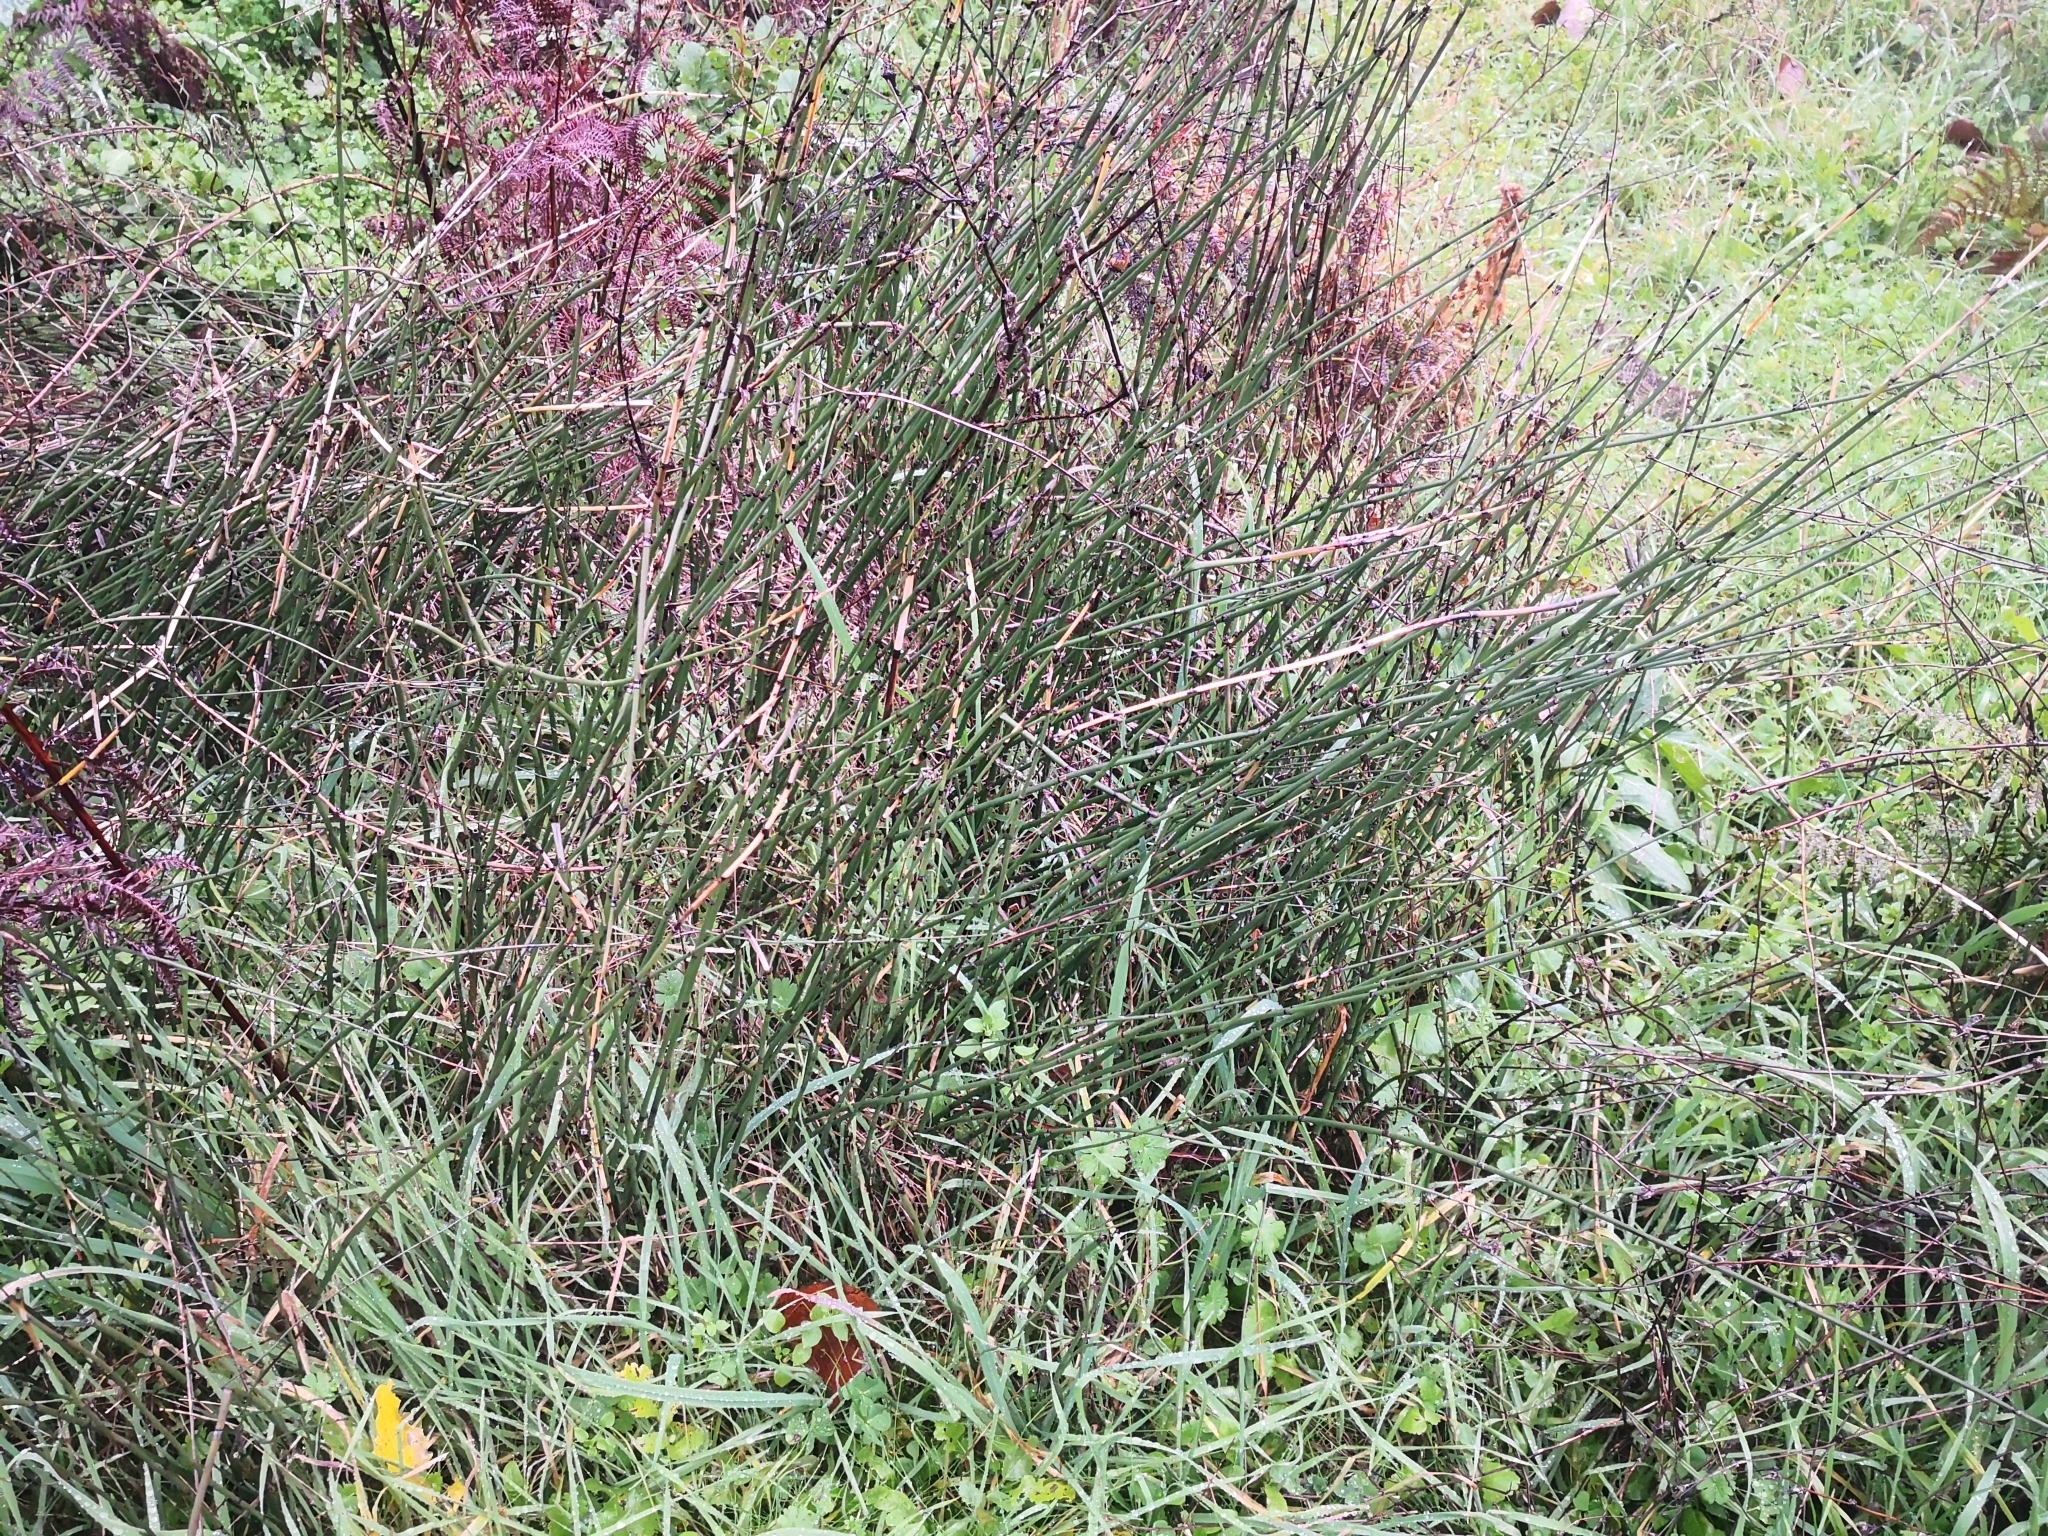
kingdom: Plantae
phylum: Tracheophyta
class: Polypodiopsida
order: Equisetales
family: Equisetaceae
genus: Equisetum
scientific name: Equisetum hyemale
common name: Rough horsetail
